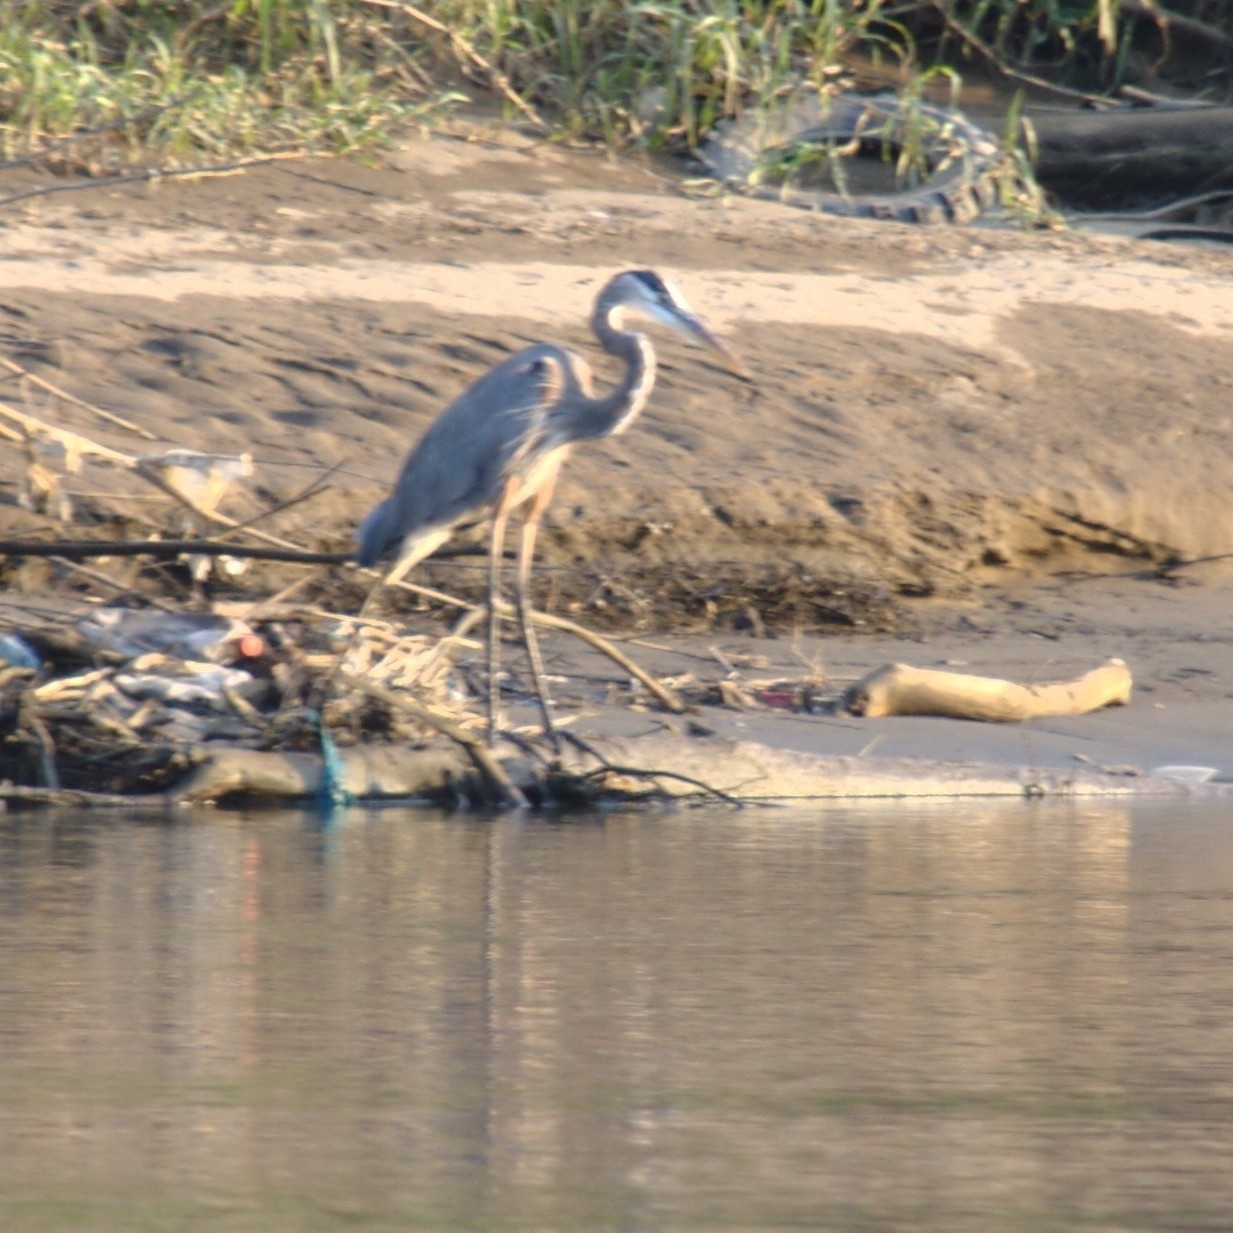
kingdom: Animalia
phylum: Chordata
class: Aves
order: Pelecaniformes
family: Ardeidae
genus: Ardea
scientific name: Ardea herodias
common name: Great blue heron
